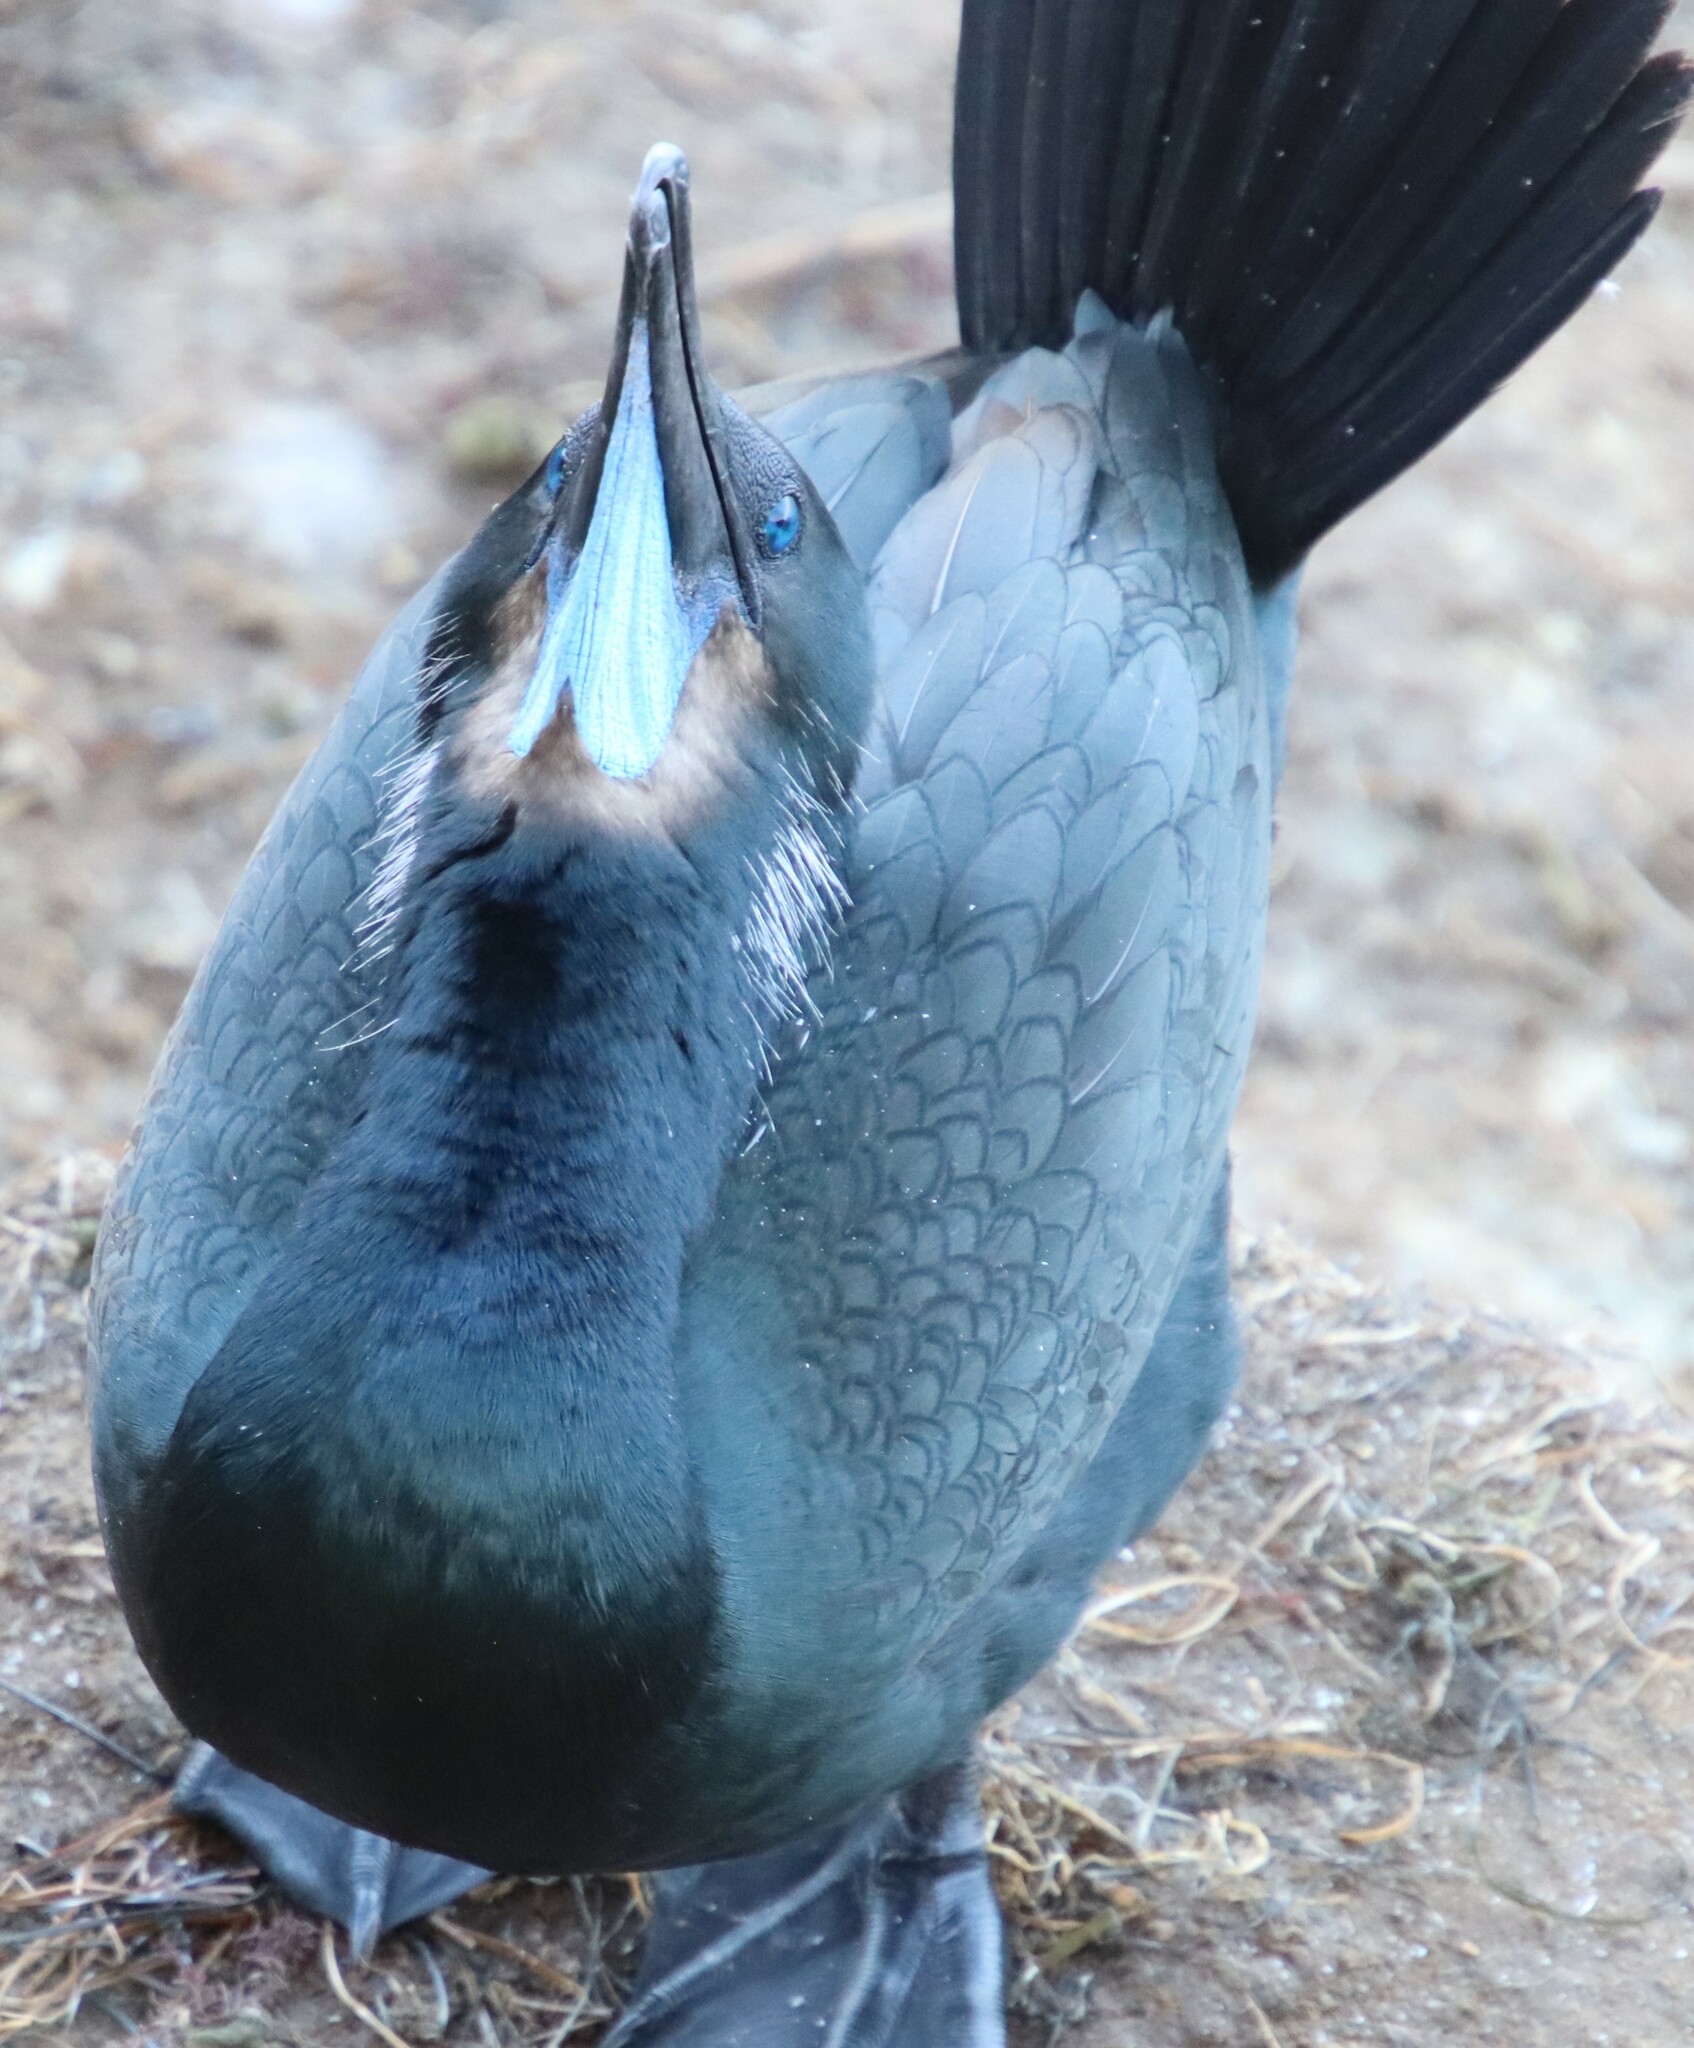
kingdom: Animalia
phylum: Chordata
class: Aves
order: Suliformes
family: Phalacrocoracidae
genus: Urile
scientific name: Urile penicillatus
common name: Brandt's cormorant
